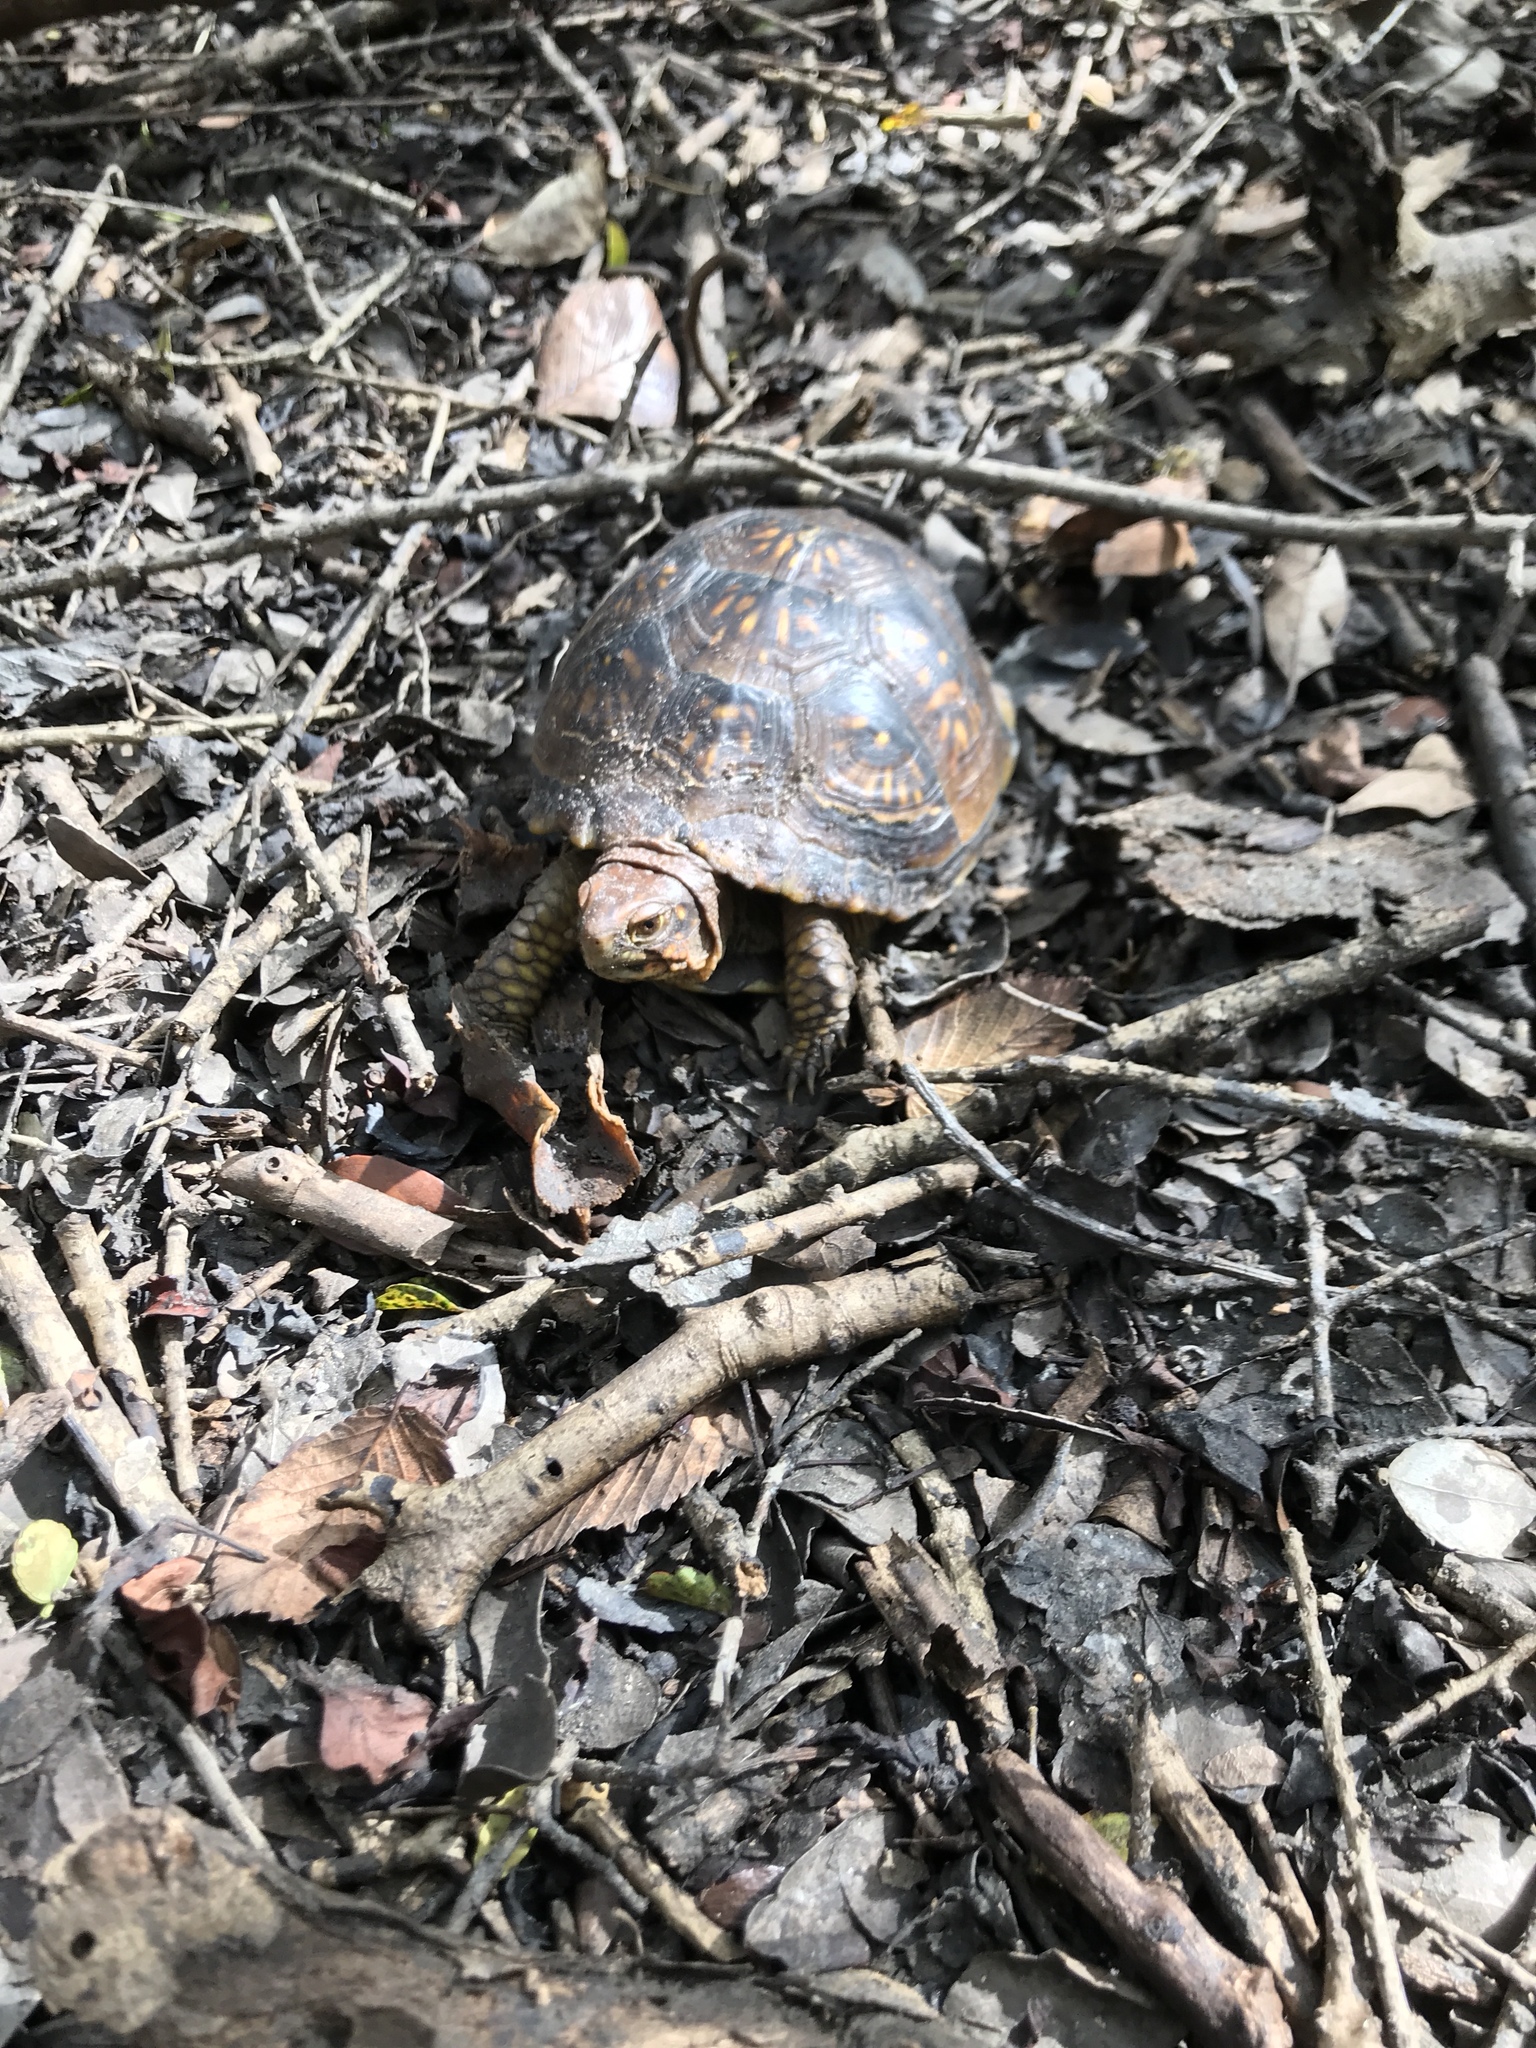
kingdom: Animalia
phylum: Chordata
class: Testudines
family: Emydidae
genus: Terrapene
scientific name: Terrapene carolina
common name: Common box turtle
